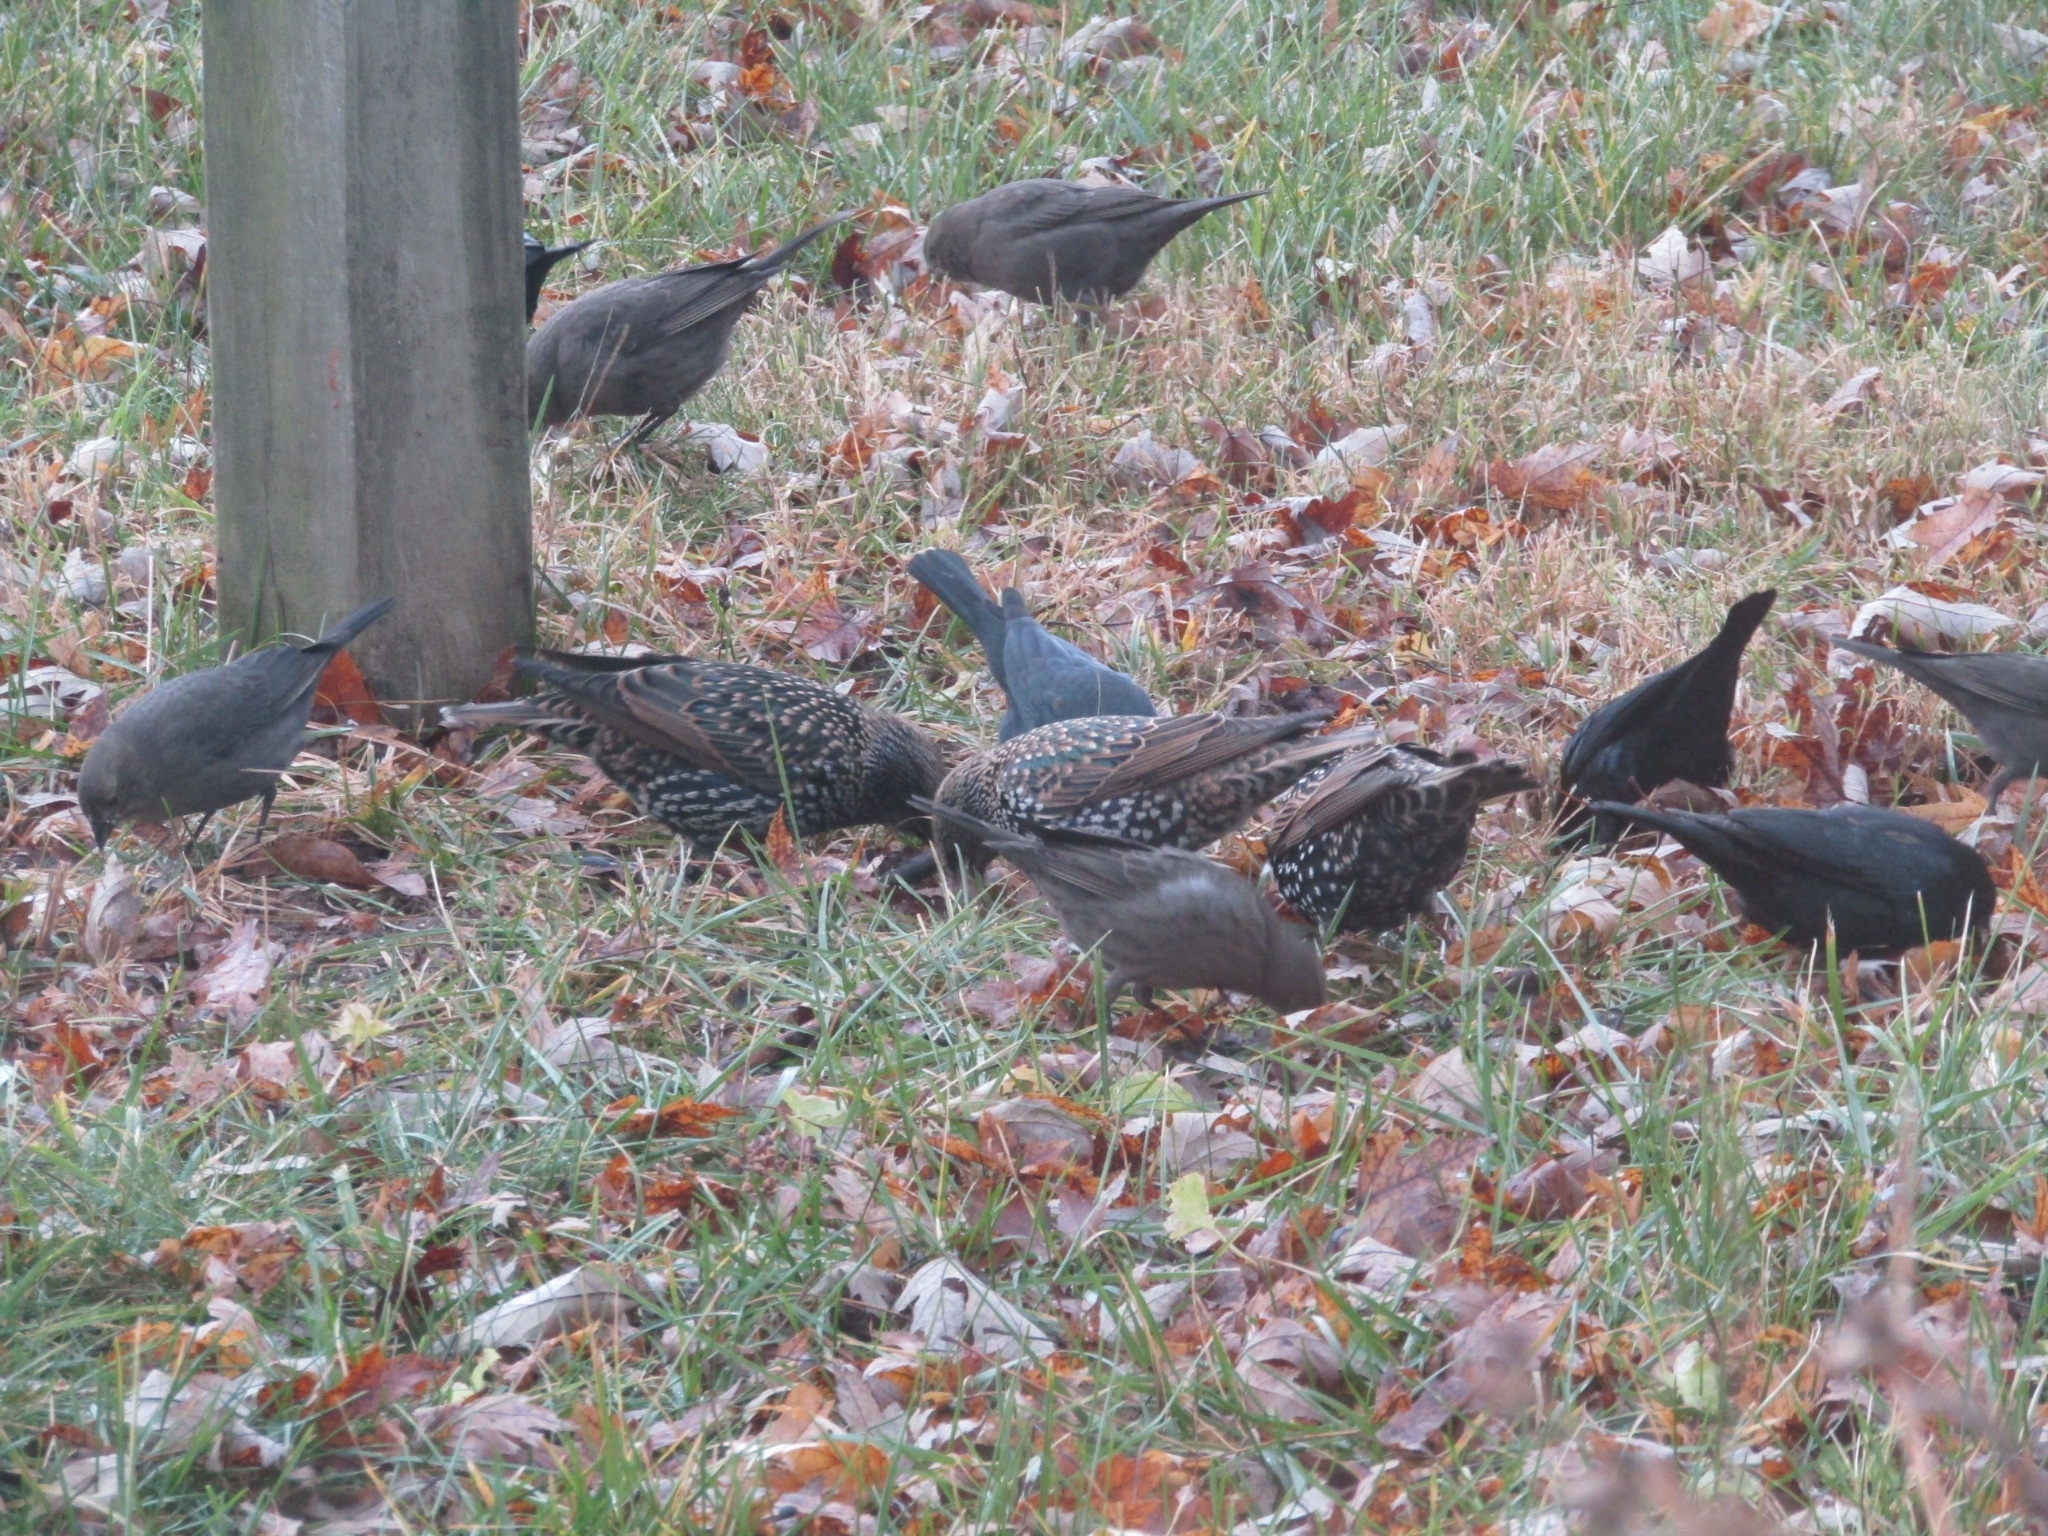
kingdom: Animalia
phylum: Chordata
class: Aves
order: Passeriformes
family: Icteridae
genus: Molothrus
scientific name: Molothrus ater
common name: Brown-headed cowbird
